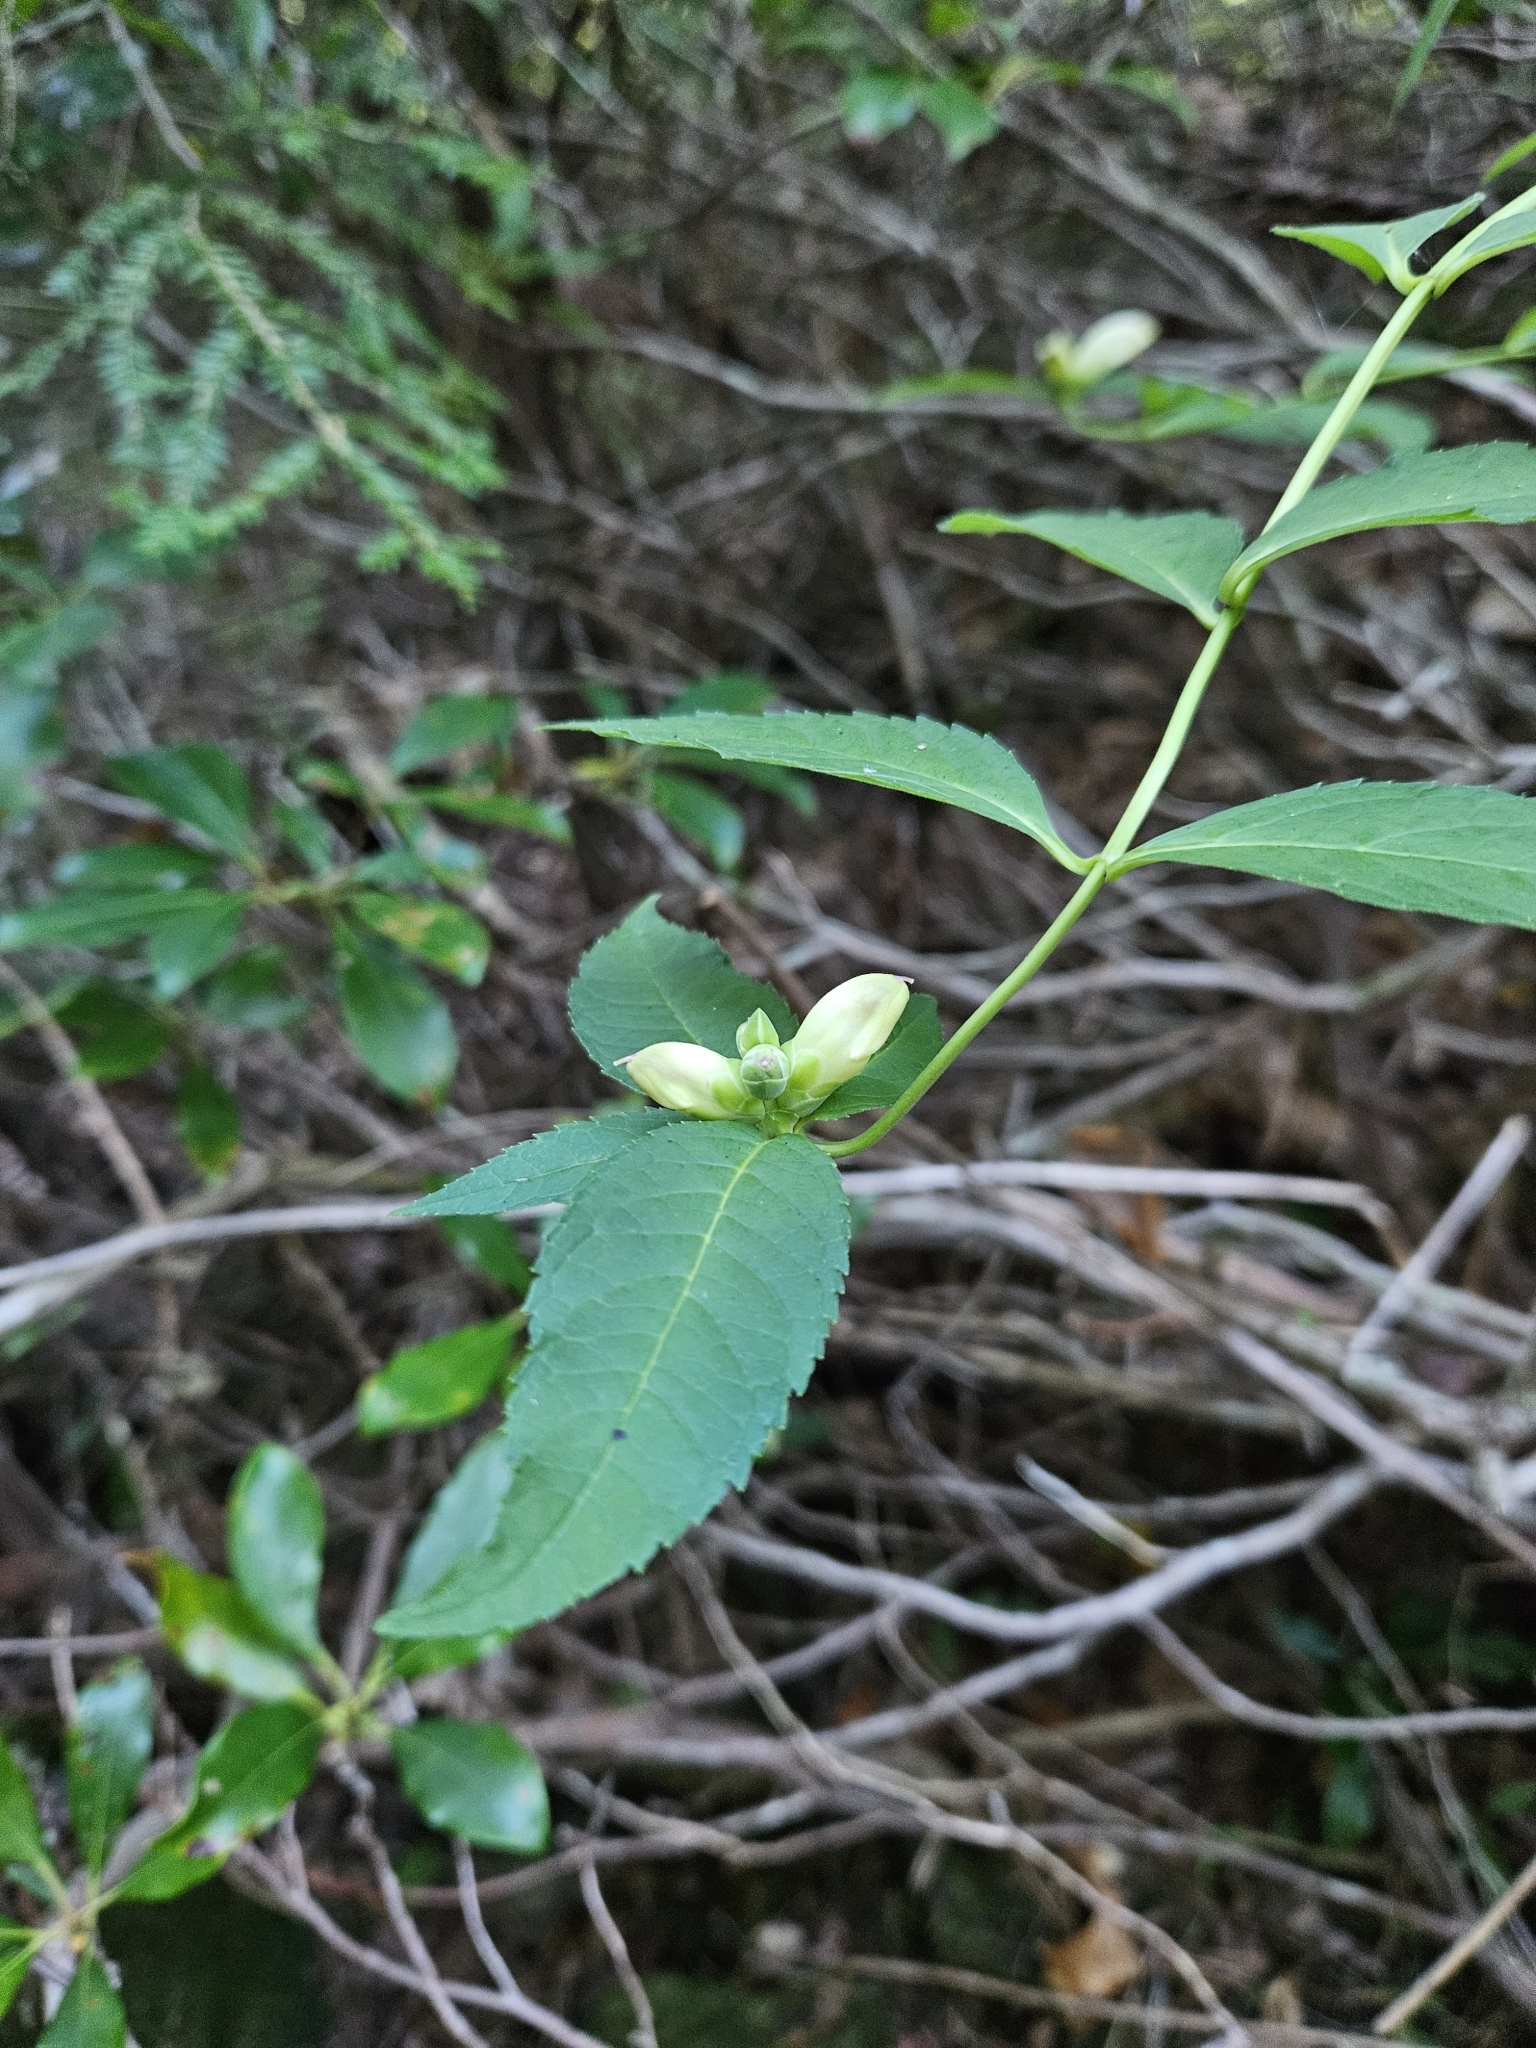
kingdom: Plantae
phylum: Tracheophyta
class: Magnoliopsida
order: Lamiales
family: Plantaginaceae
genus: Chelone
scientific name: Chelone glabra
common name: Snakehead
